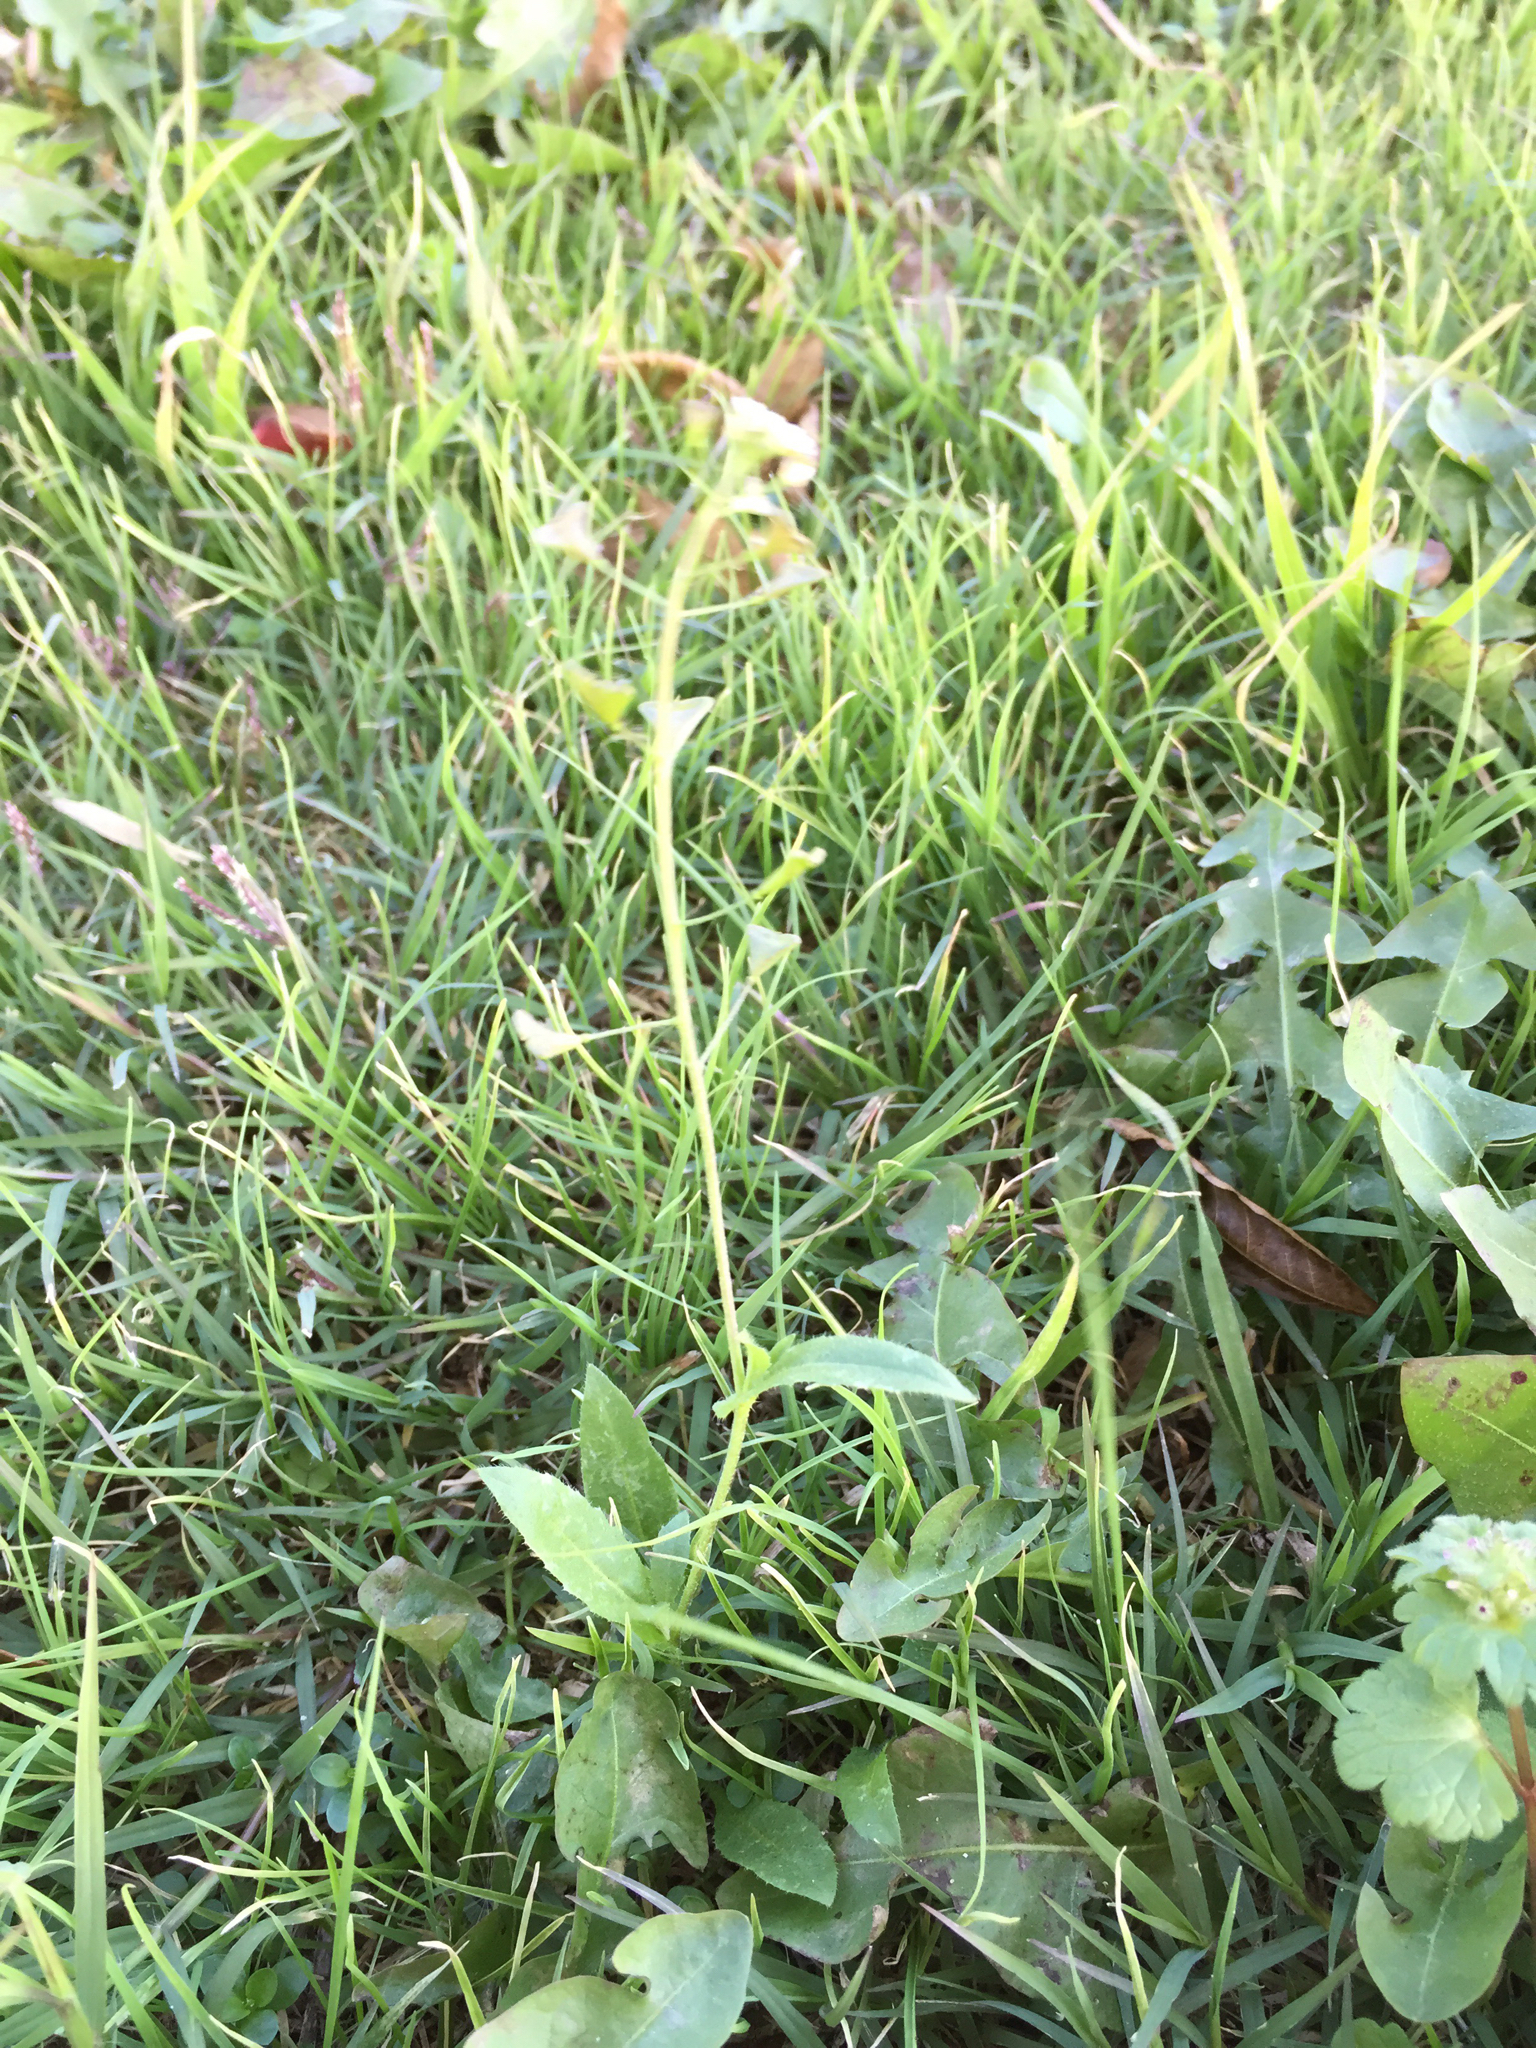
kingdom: Plantae
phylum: Tracheophyta
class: Magnoliopsida
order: Brassicales
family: Brassicaceae
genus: Capsella
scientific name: Capsella bursa-pastoris
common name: Shepherd's purse
